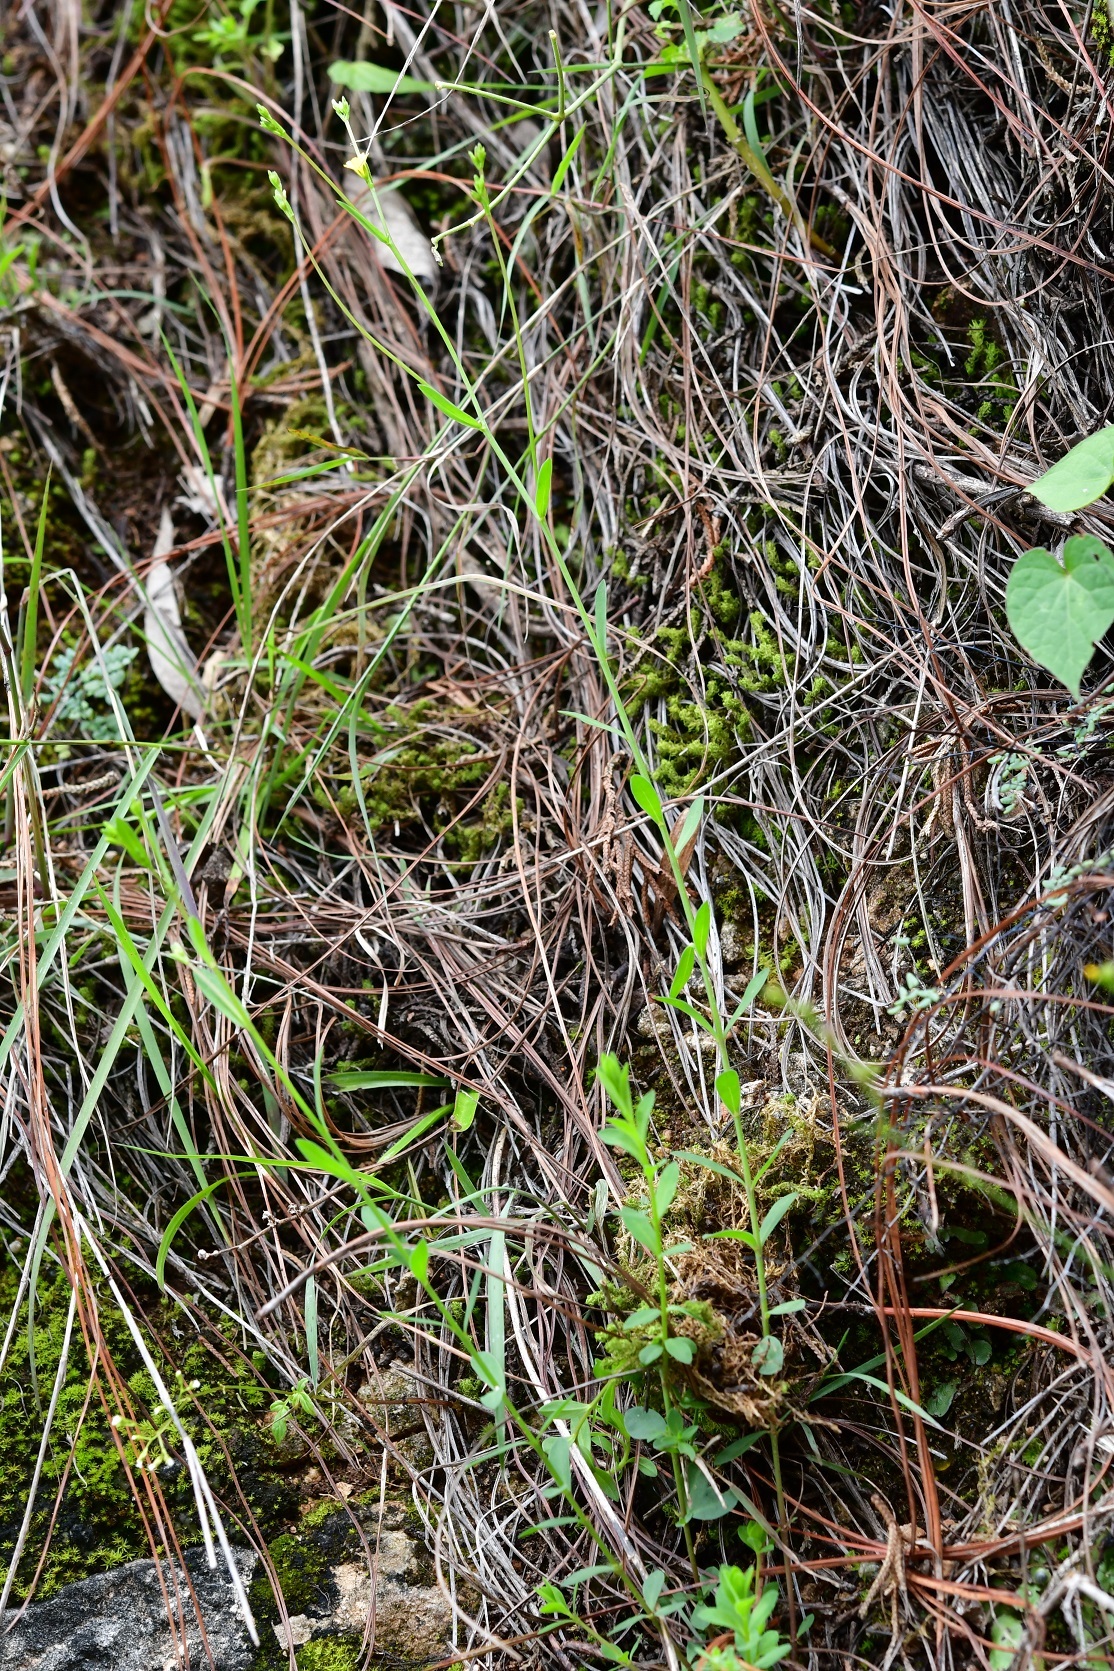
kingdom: Plantae
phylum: Tracheophyta
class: Magnoliopsida
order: Malpighiales
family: Linaceae
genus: Linum
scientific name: Linum rupestre
